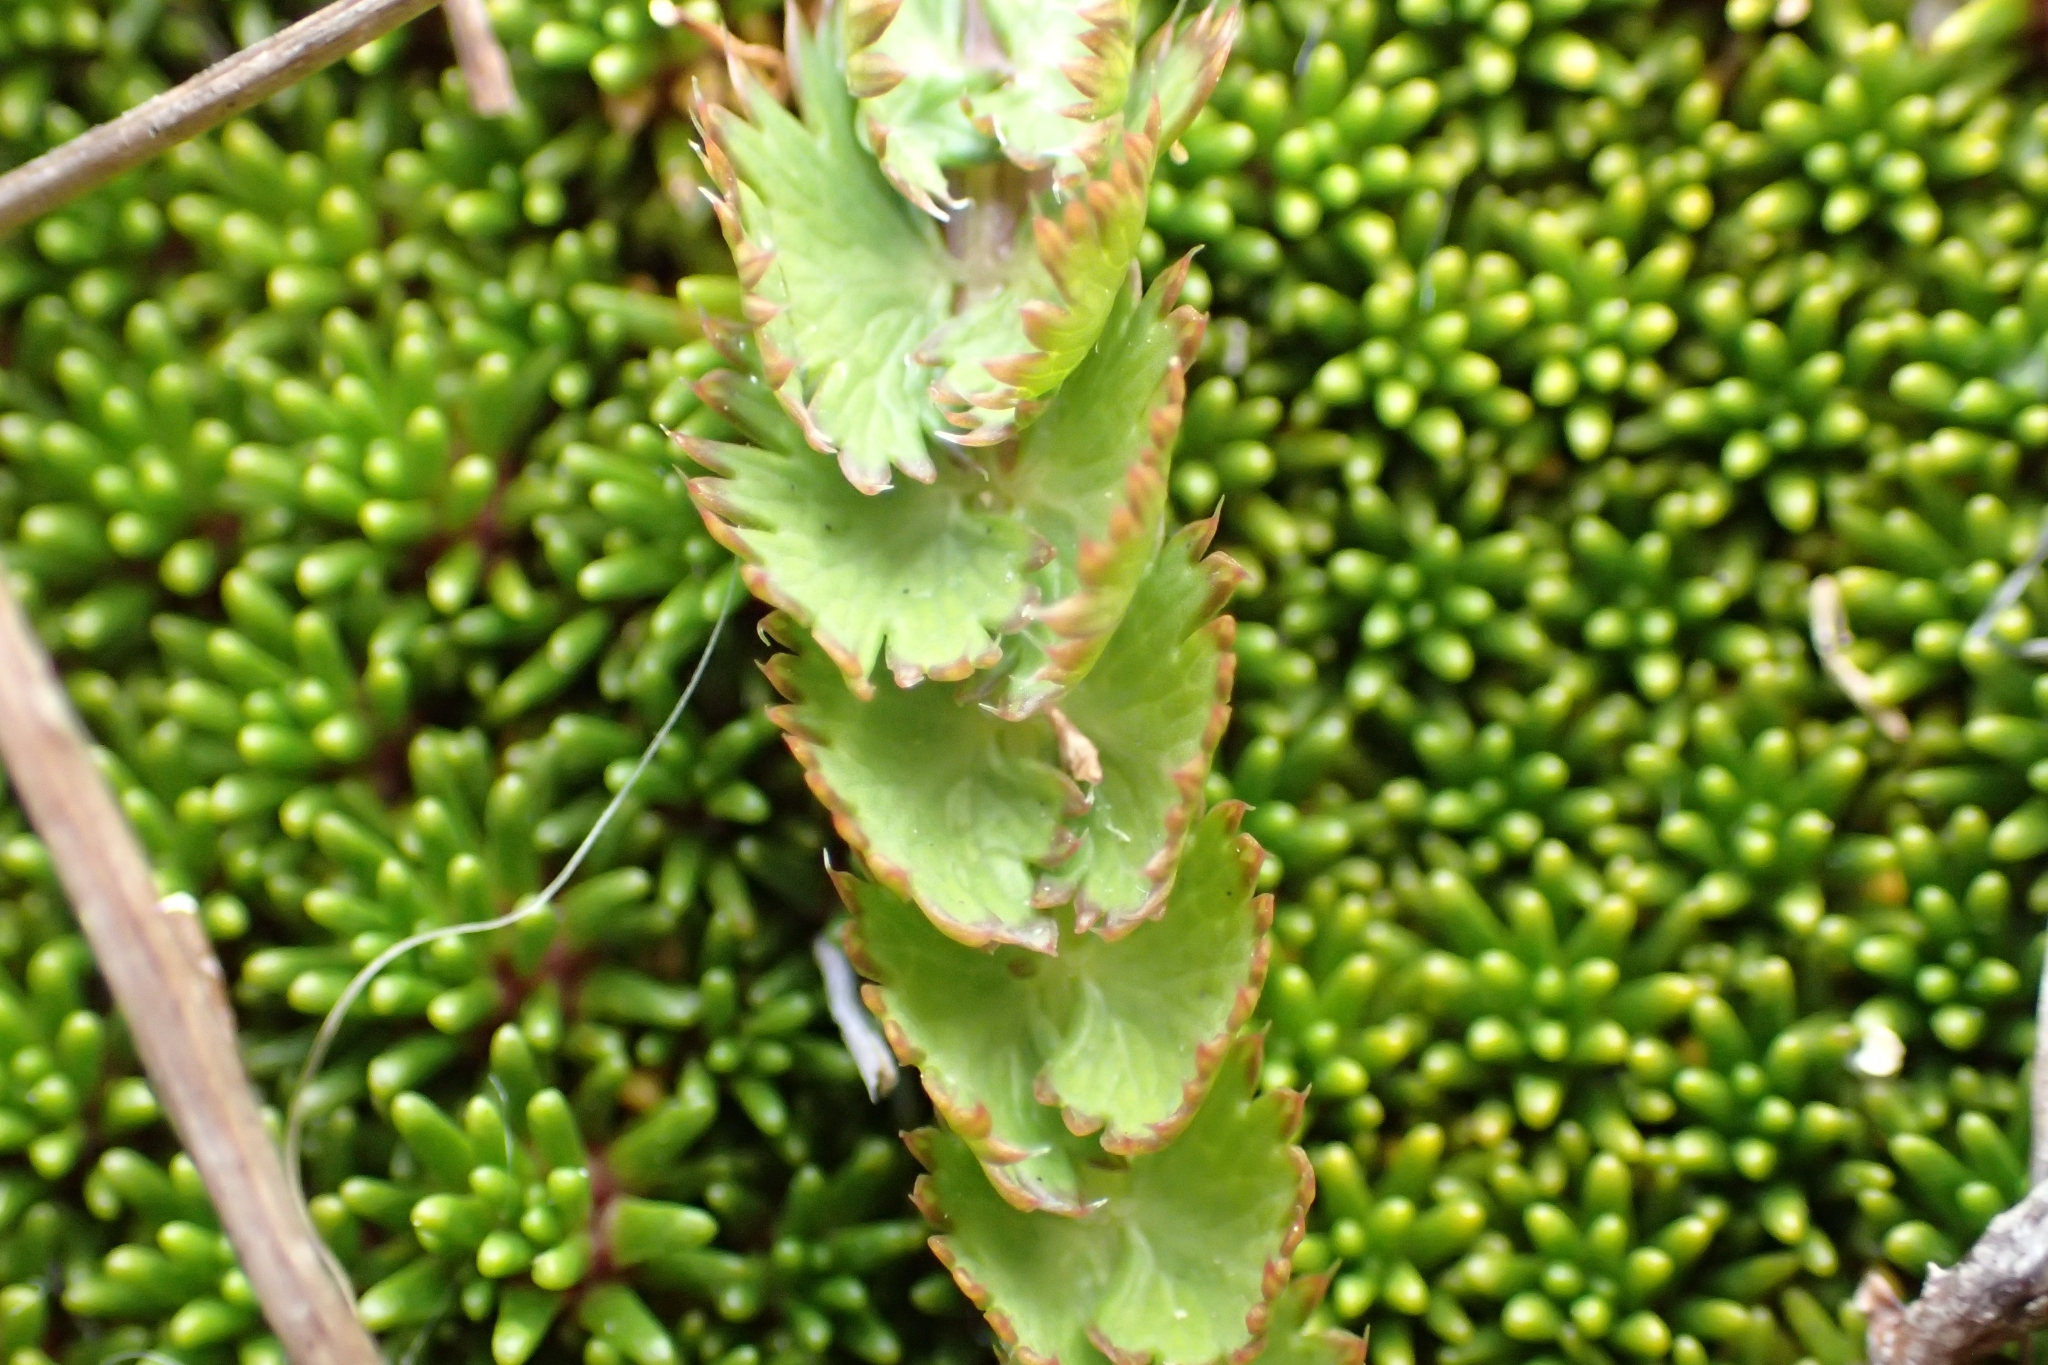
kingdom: Plantae
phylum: Tracheophyta
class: Magnoliopsida
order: Apiales
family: Apiaceae
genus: Anisotome
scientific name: Anisotome aromatica
